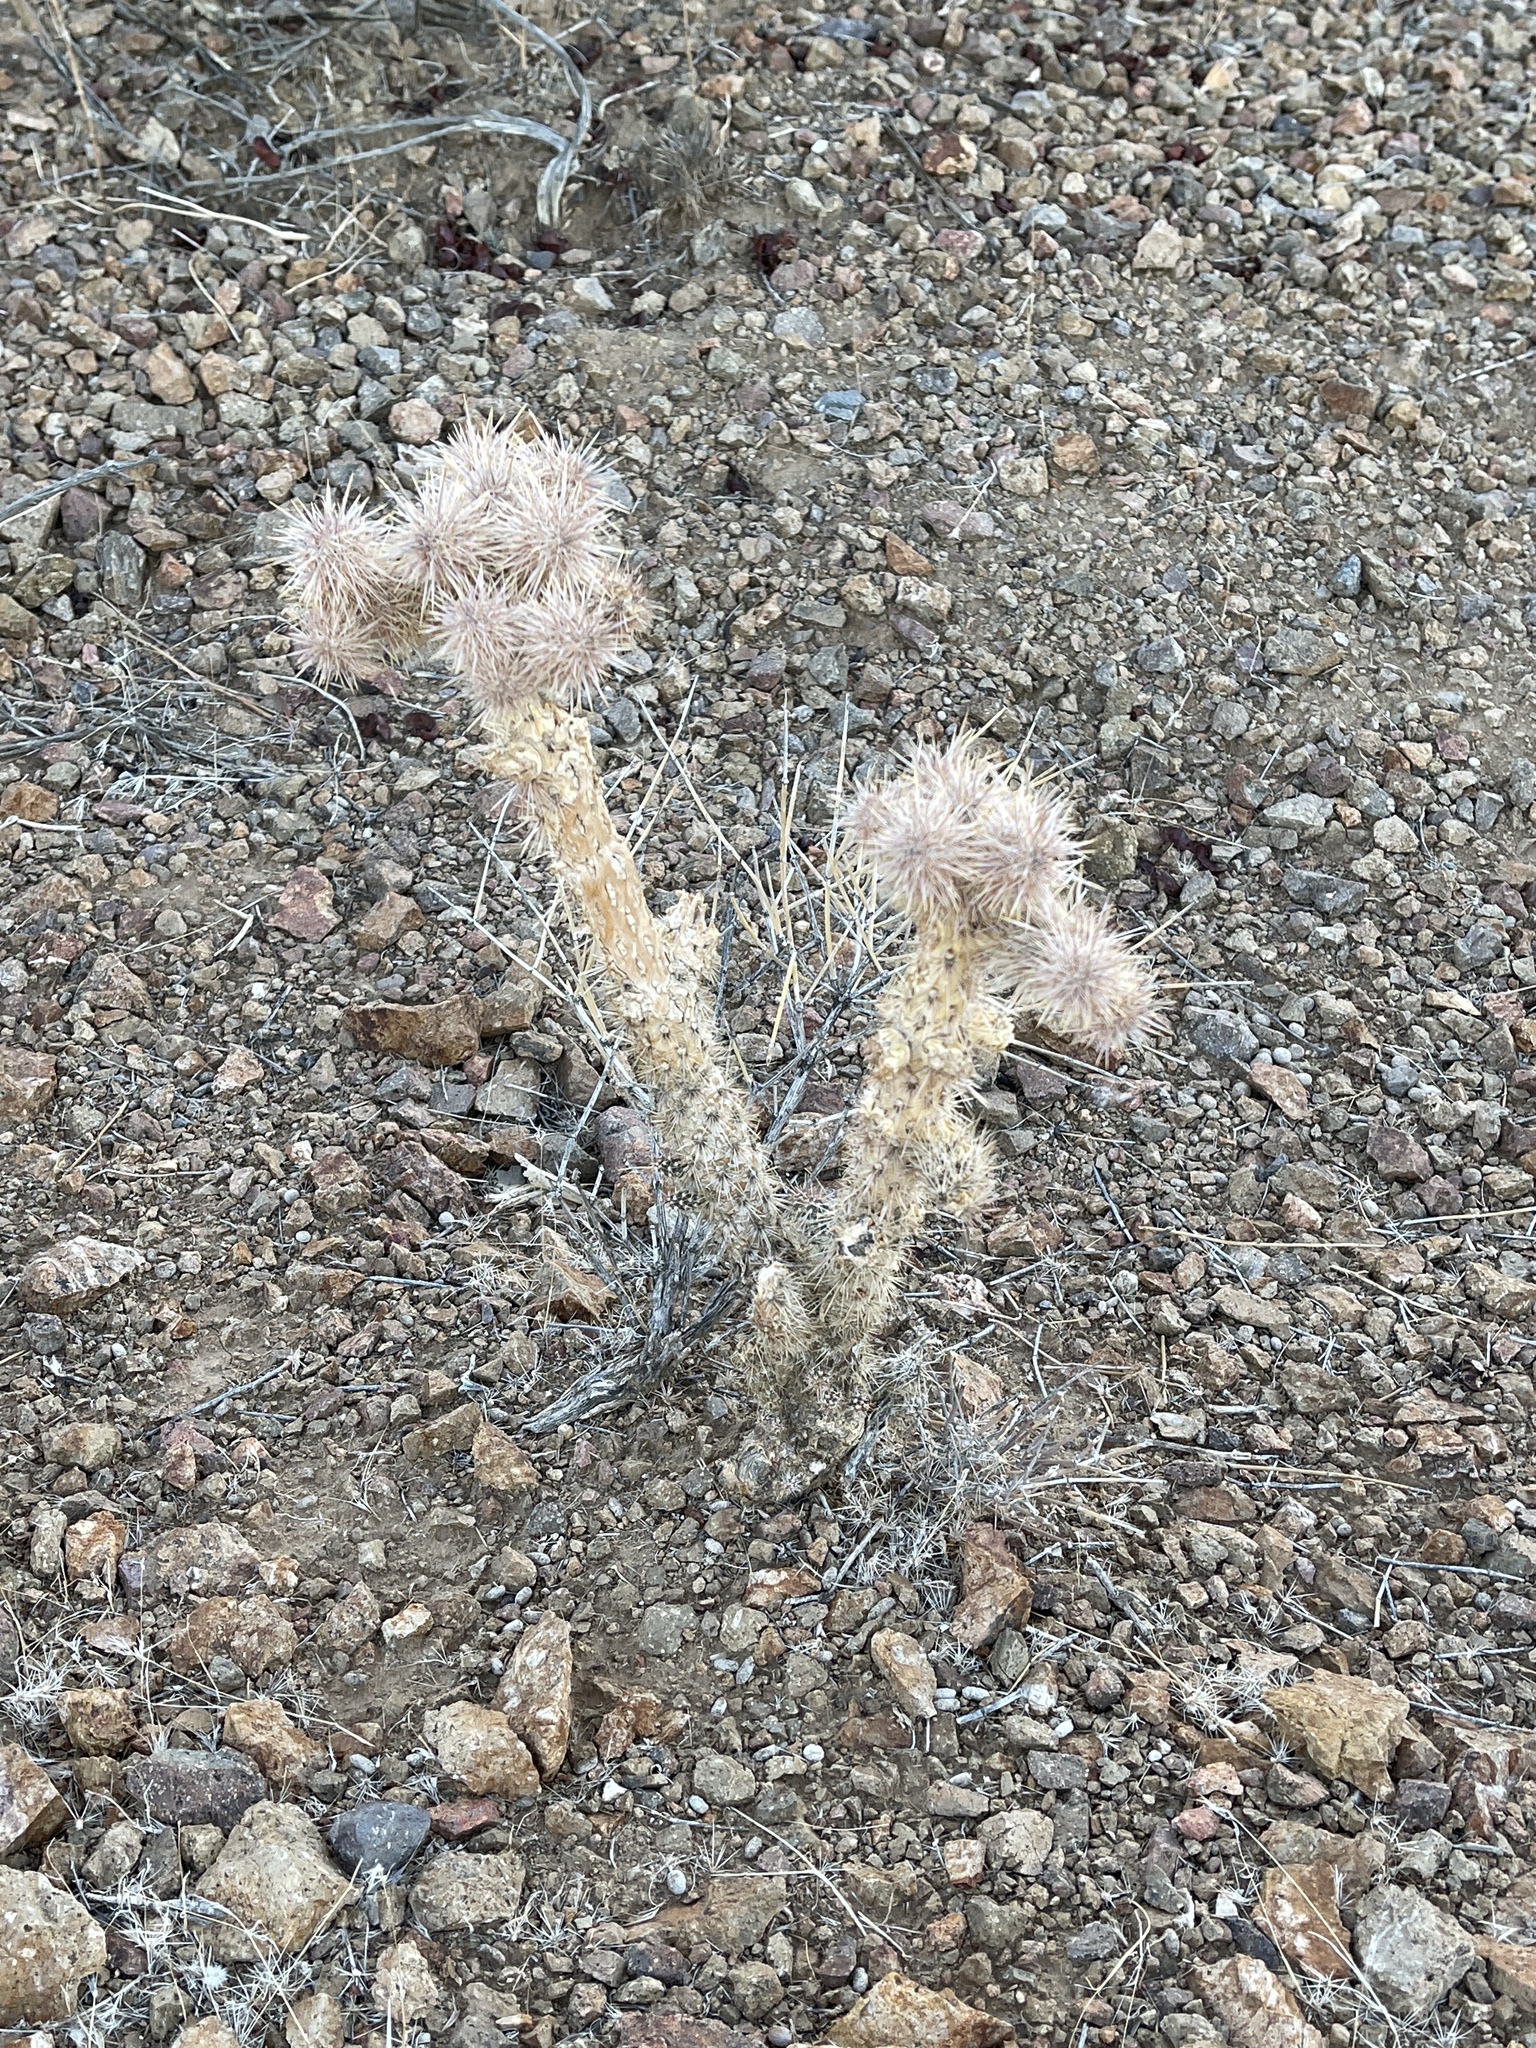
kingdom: Plantae
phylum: Tracheophyta
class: Magnoliopsida
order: Caryophyllales
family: Cactaceae
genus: Cylindropuntia
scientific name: Cylindropuntia echinocarpa
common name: Ground cholla
